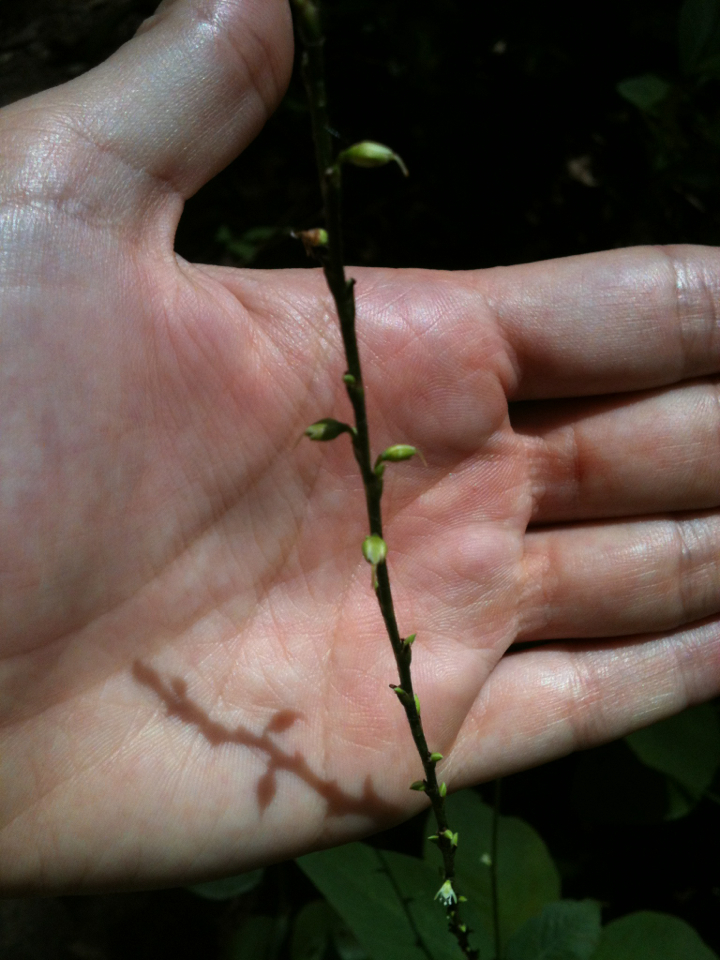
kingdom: Plantae
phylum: Tracheophyta
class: Magnoliopsida
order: Caryophyllales
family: Polygonaceae
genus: Persicaria
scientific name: Persicaria virginiana
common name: Jumpseed
